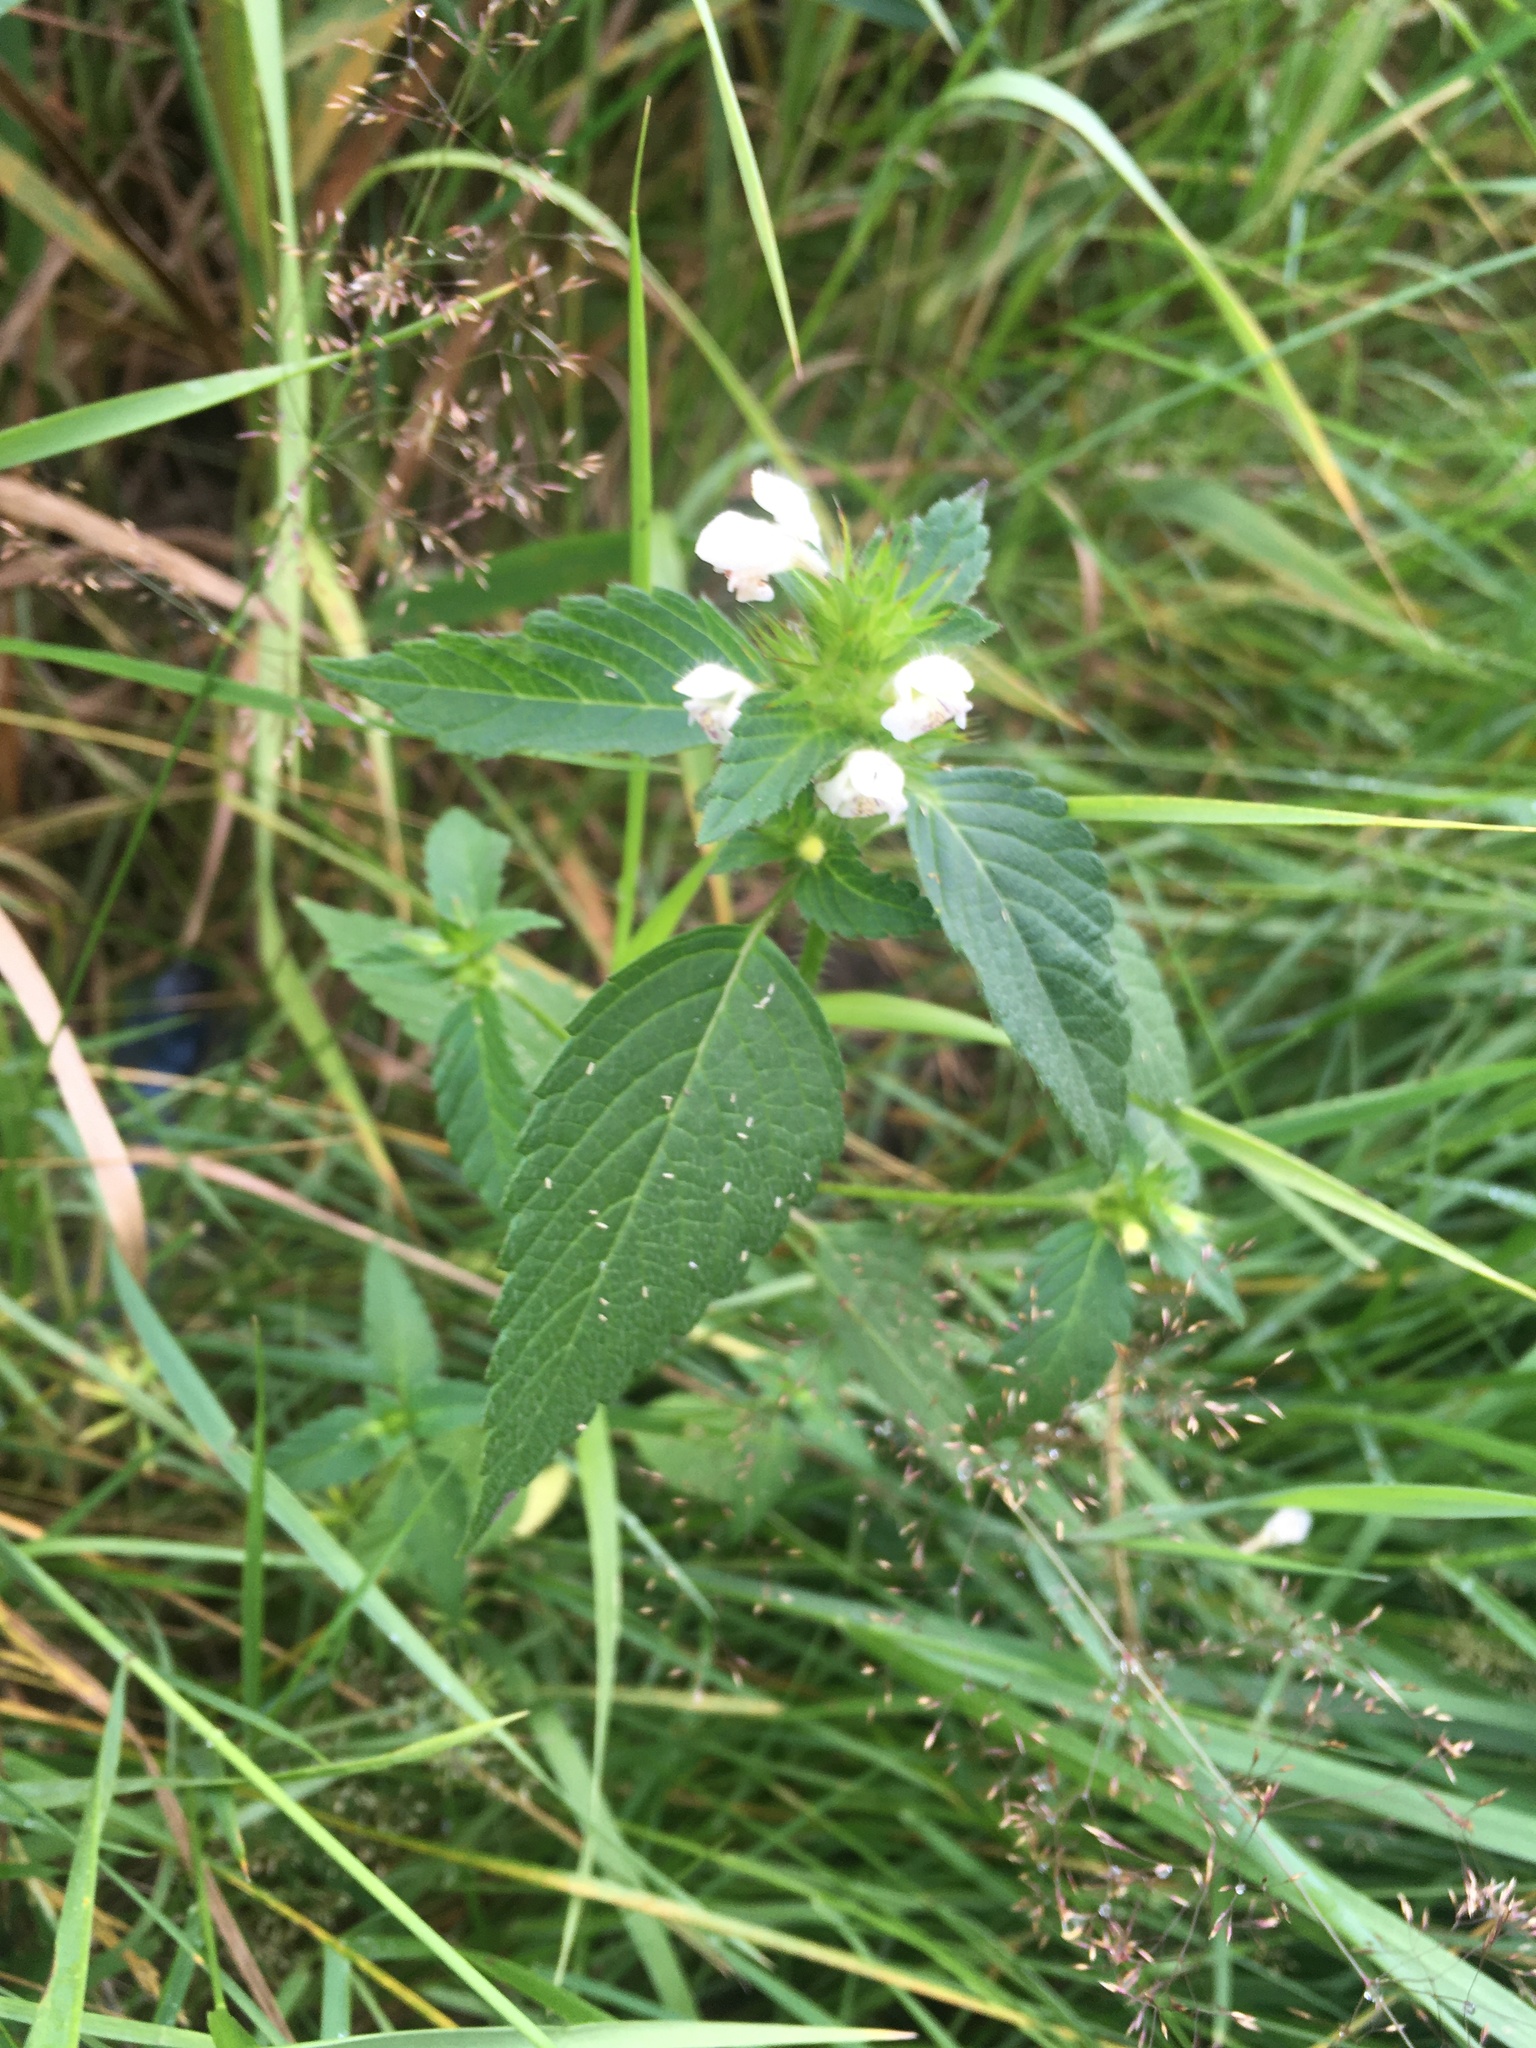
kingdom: Plantae
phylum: Tracheophyta
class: Magnoliopsida
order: Lamiales
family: Lamiaceae
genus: Galeopsis
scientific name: Galeopsis tetrahit
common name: Common hemp-nettle
